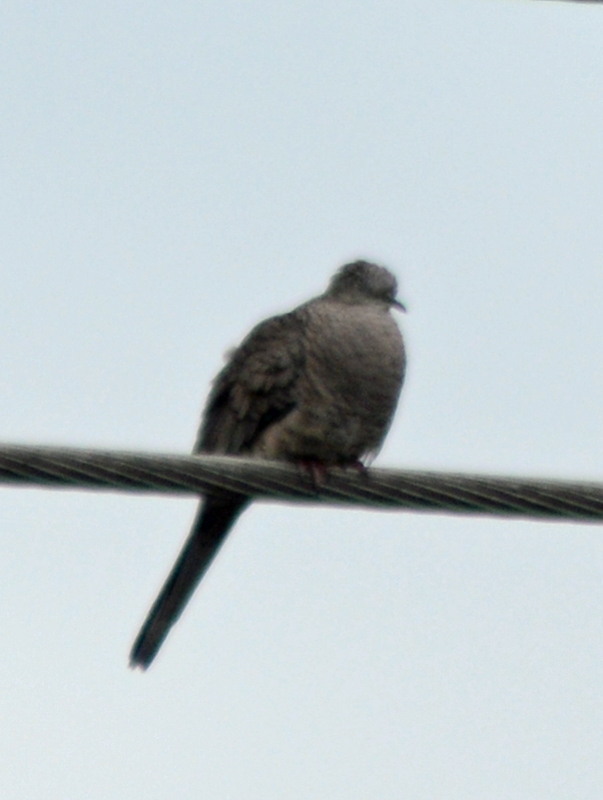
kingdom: Animalia
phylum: Chordata
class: Aves
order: Columbiformes
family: Columbidae
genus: Columbina
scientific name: Columbina inca
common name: Inca dove
